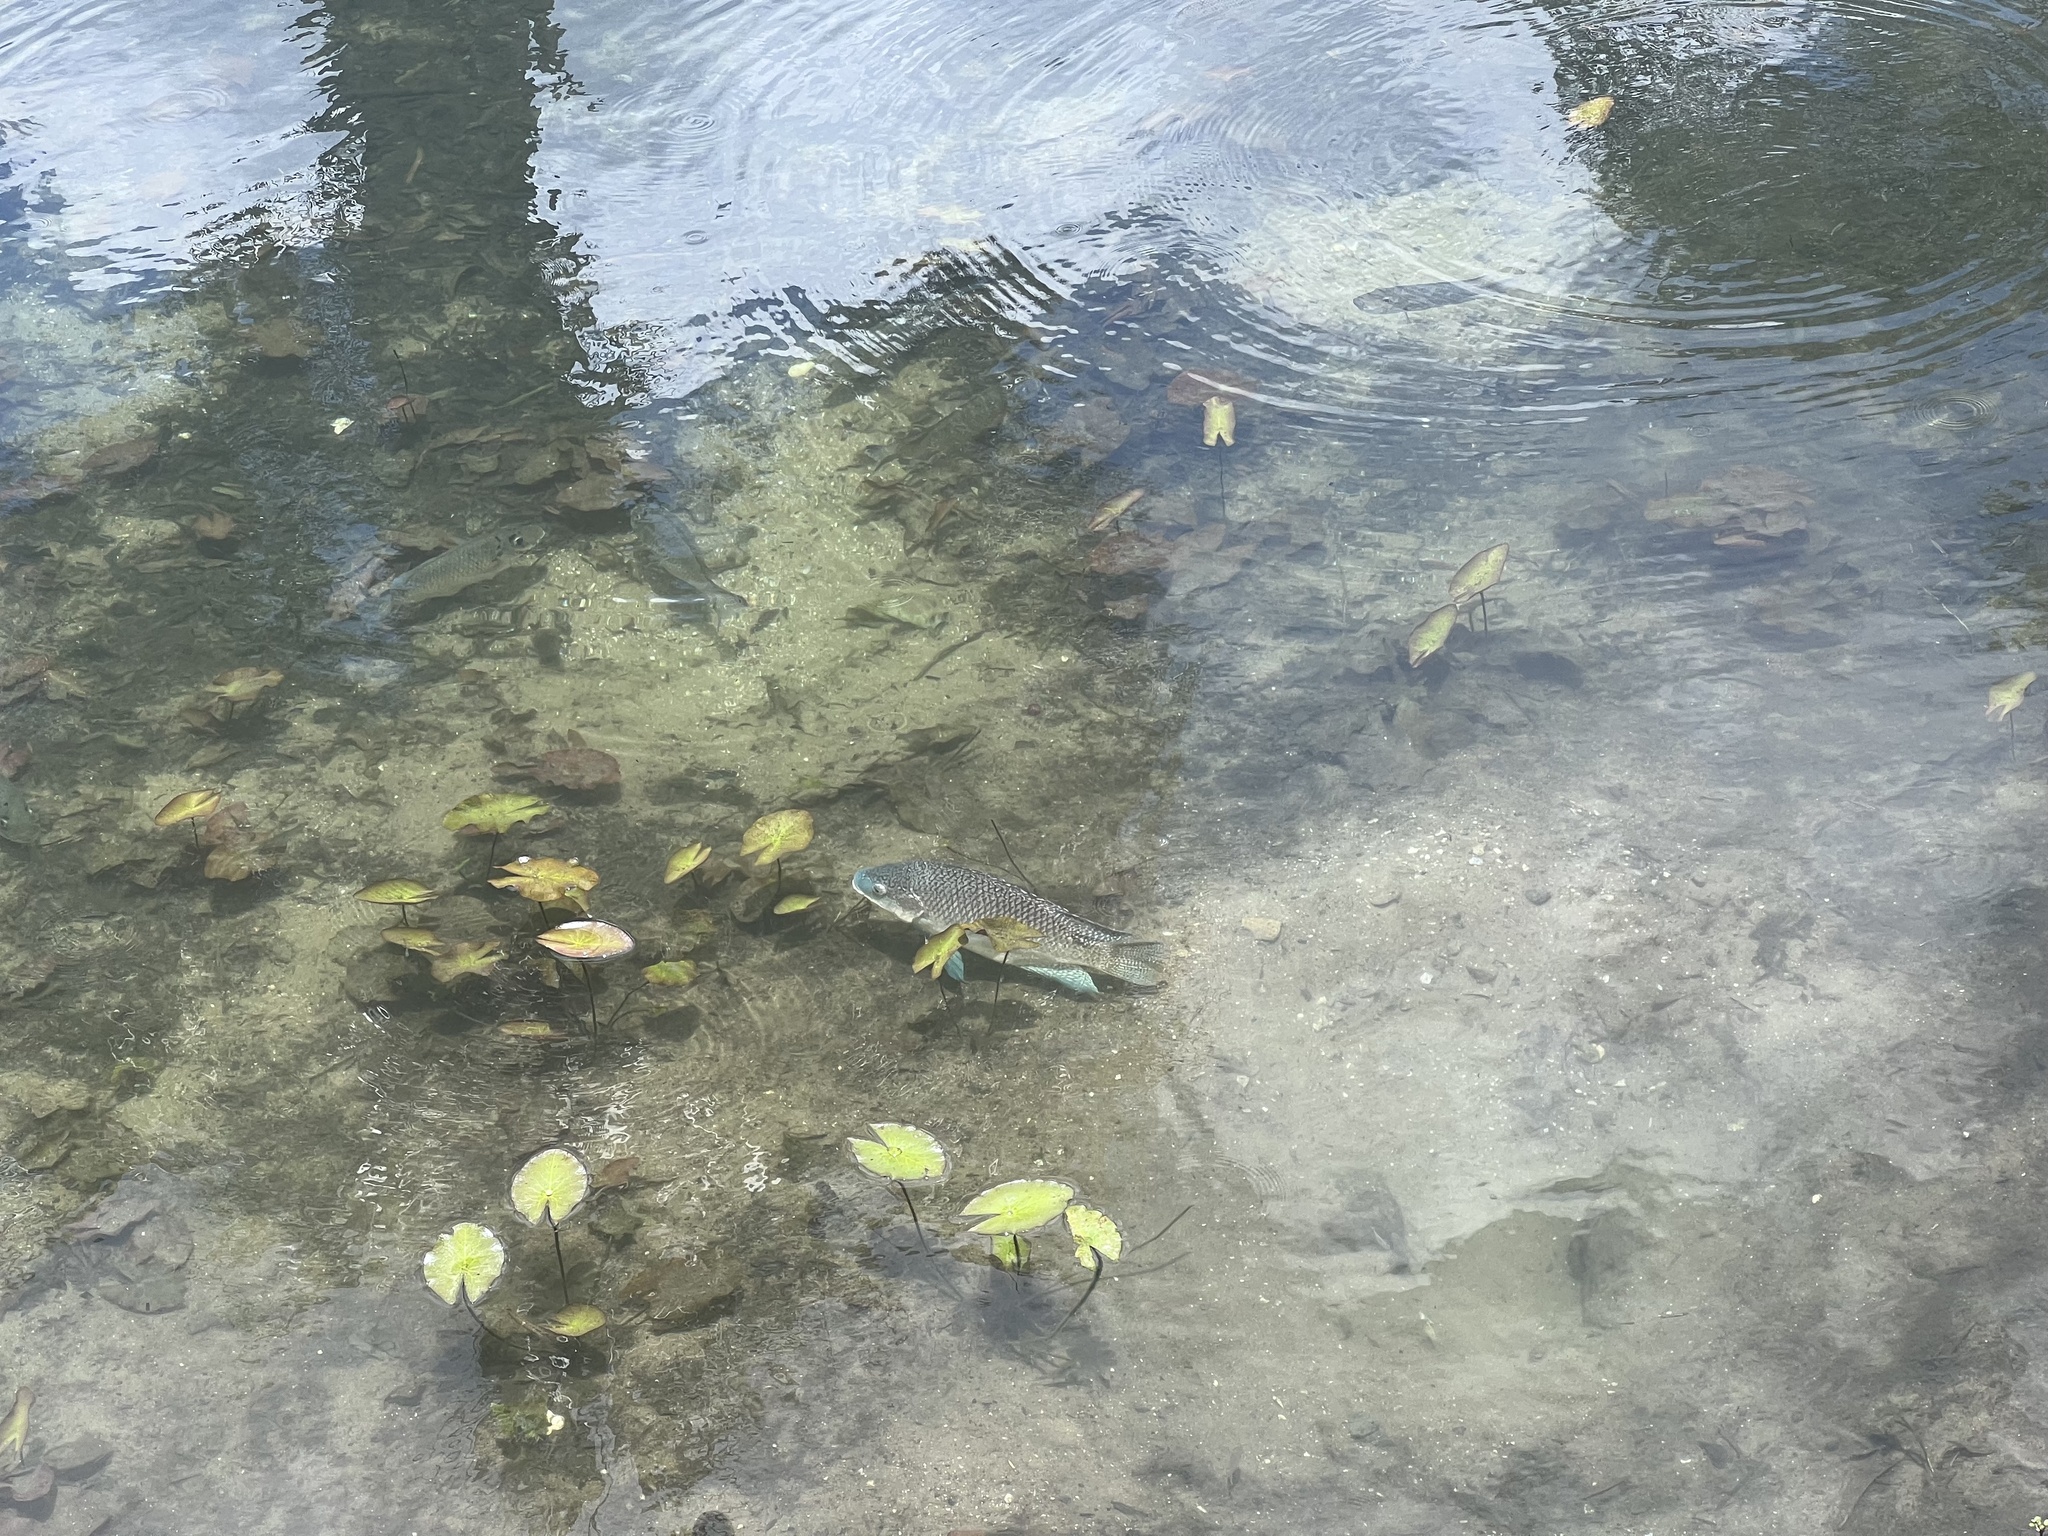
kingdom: Animalia
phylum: Chordata
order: Perciformes
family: Cichlidae
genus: Oreochromis
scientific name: Oreochromis aureus
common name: Blue tilapia
